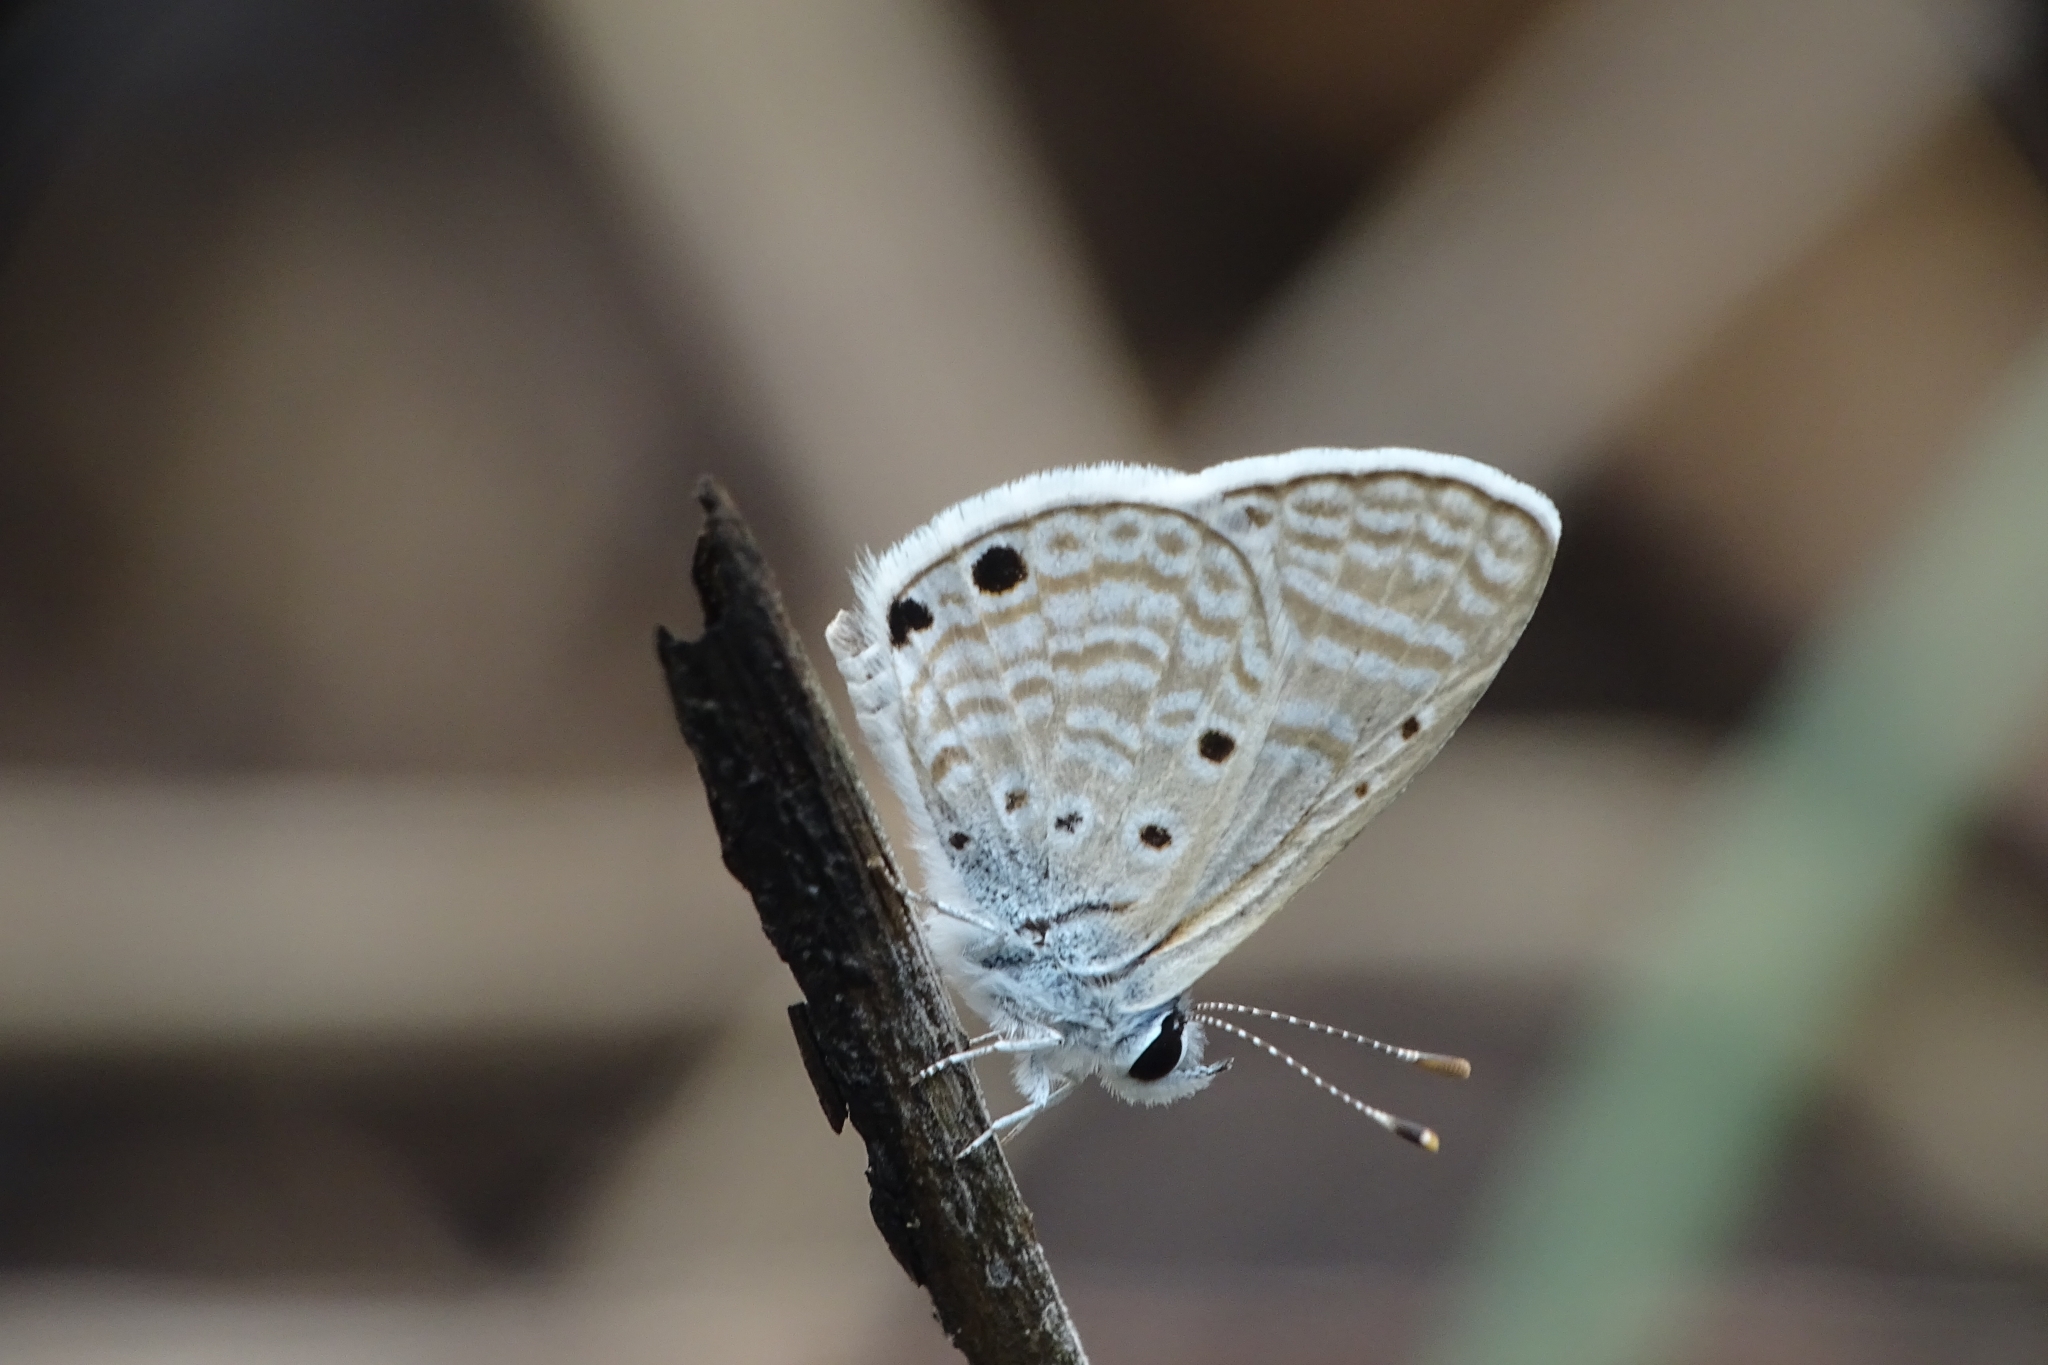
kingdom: Animalia
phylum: Arthropoda
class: Insecta
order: Lepidoptera
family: Lycaenidae
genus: Azanus
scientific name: Azanus ubaldus
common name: Desert babul blue
